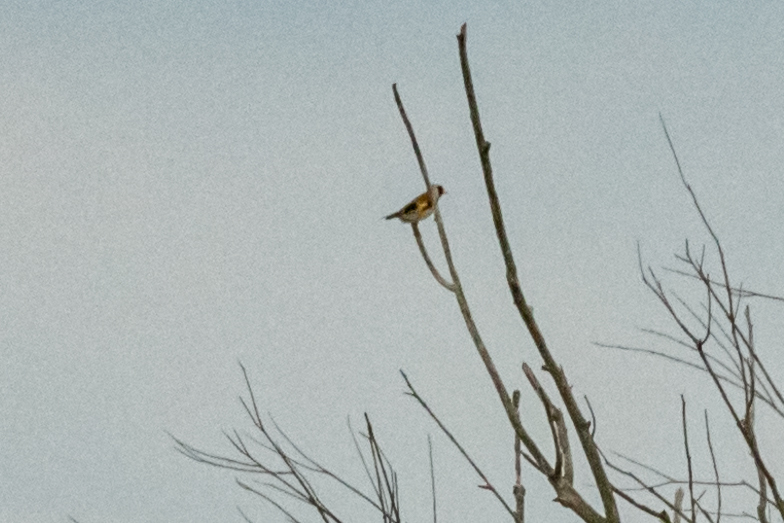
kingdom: Animalia
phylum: Chordata
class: Aves
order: Passeriformes
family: Fringillidae
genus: Carduelis
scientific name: Carduelis carduelis
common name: European goldfinch
